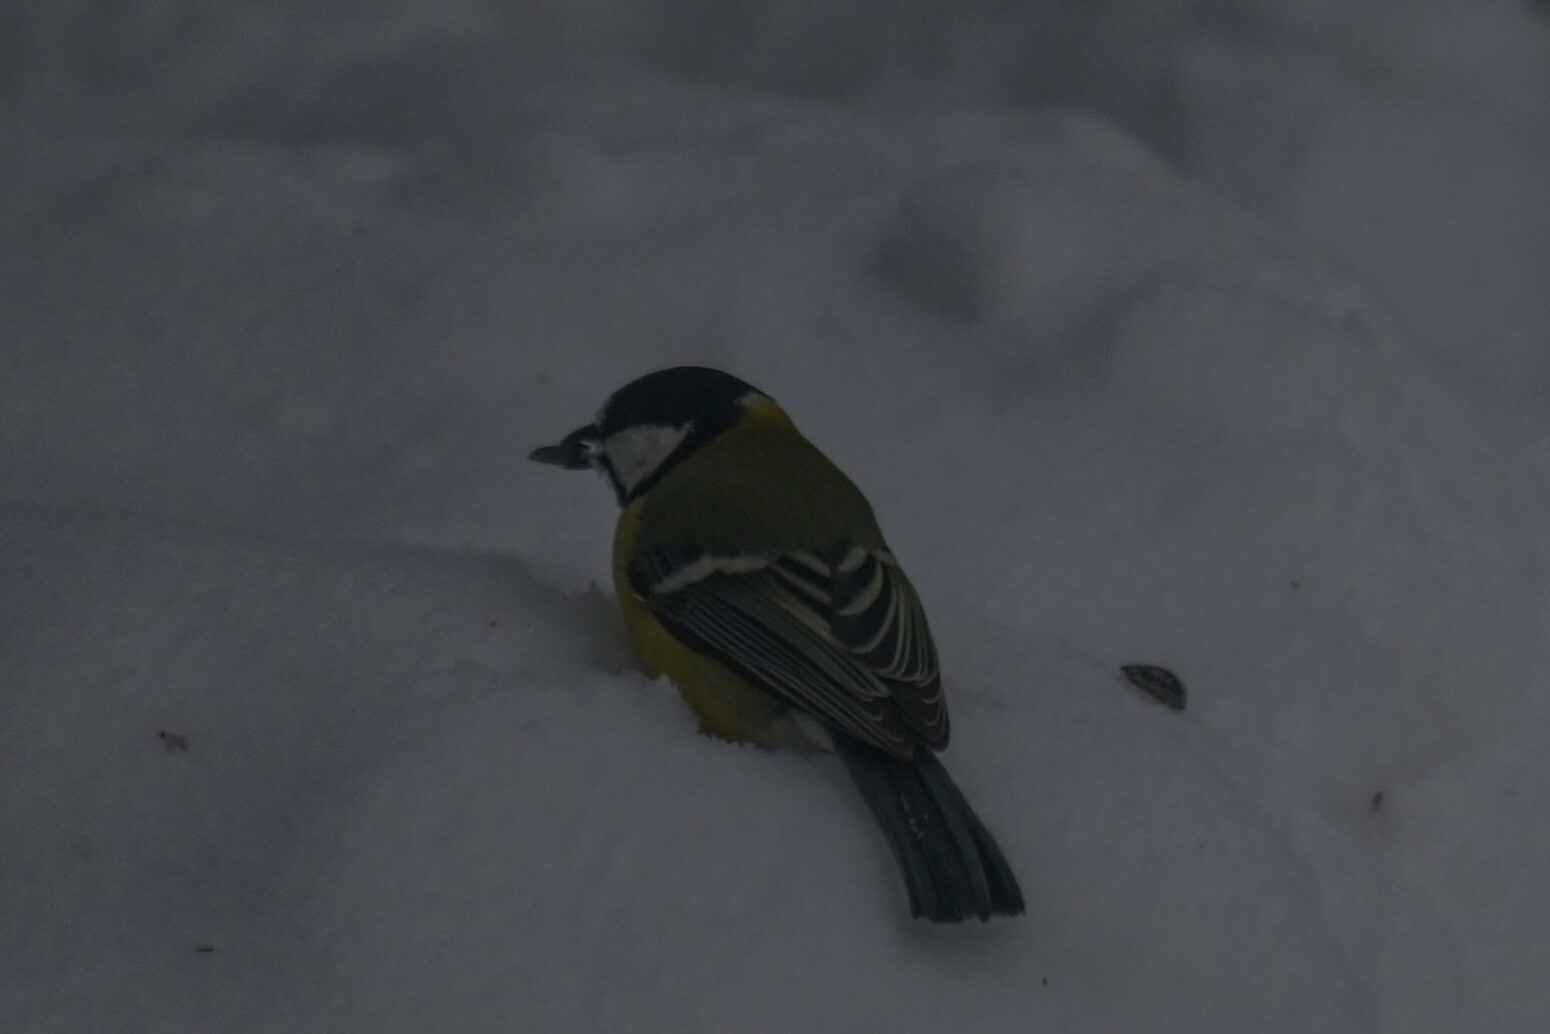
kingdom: Animalia
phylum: Chordata
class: Aves
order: Passeriformes
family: Paridae
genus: Parus
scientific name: Parus major
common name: Great tit
